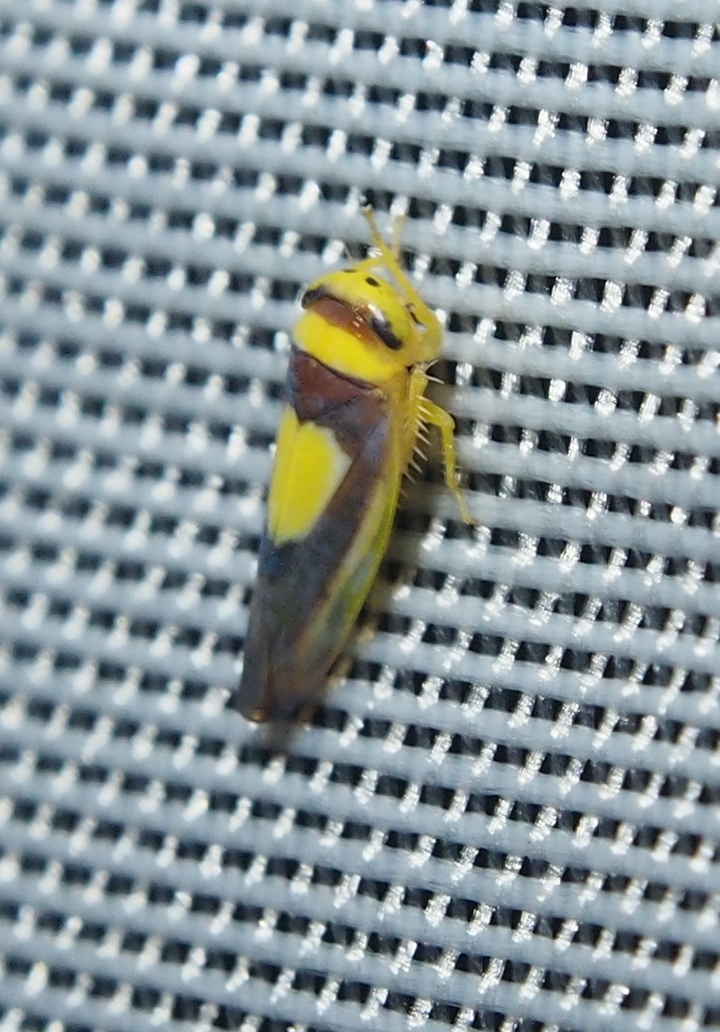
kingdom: Animalia
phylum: Arthropoda
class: Insecta
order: Hemiptera
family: Cicadellidae
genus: Colladonus
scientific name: Colladonus clitellarius
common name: The saddleback leafhopper
